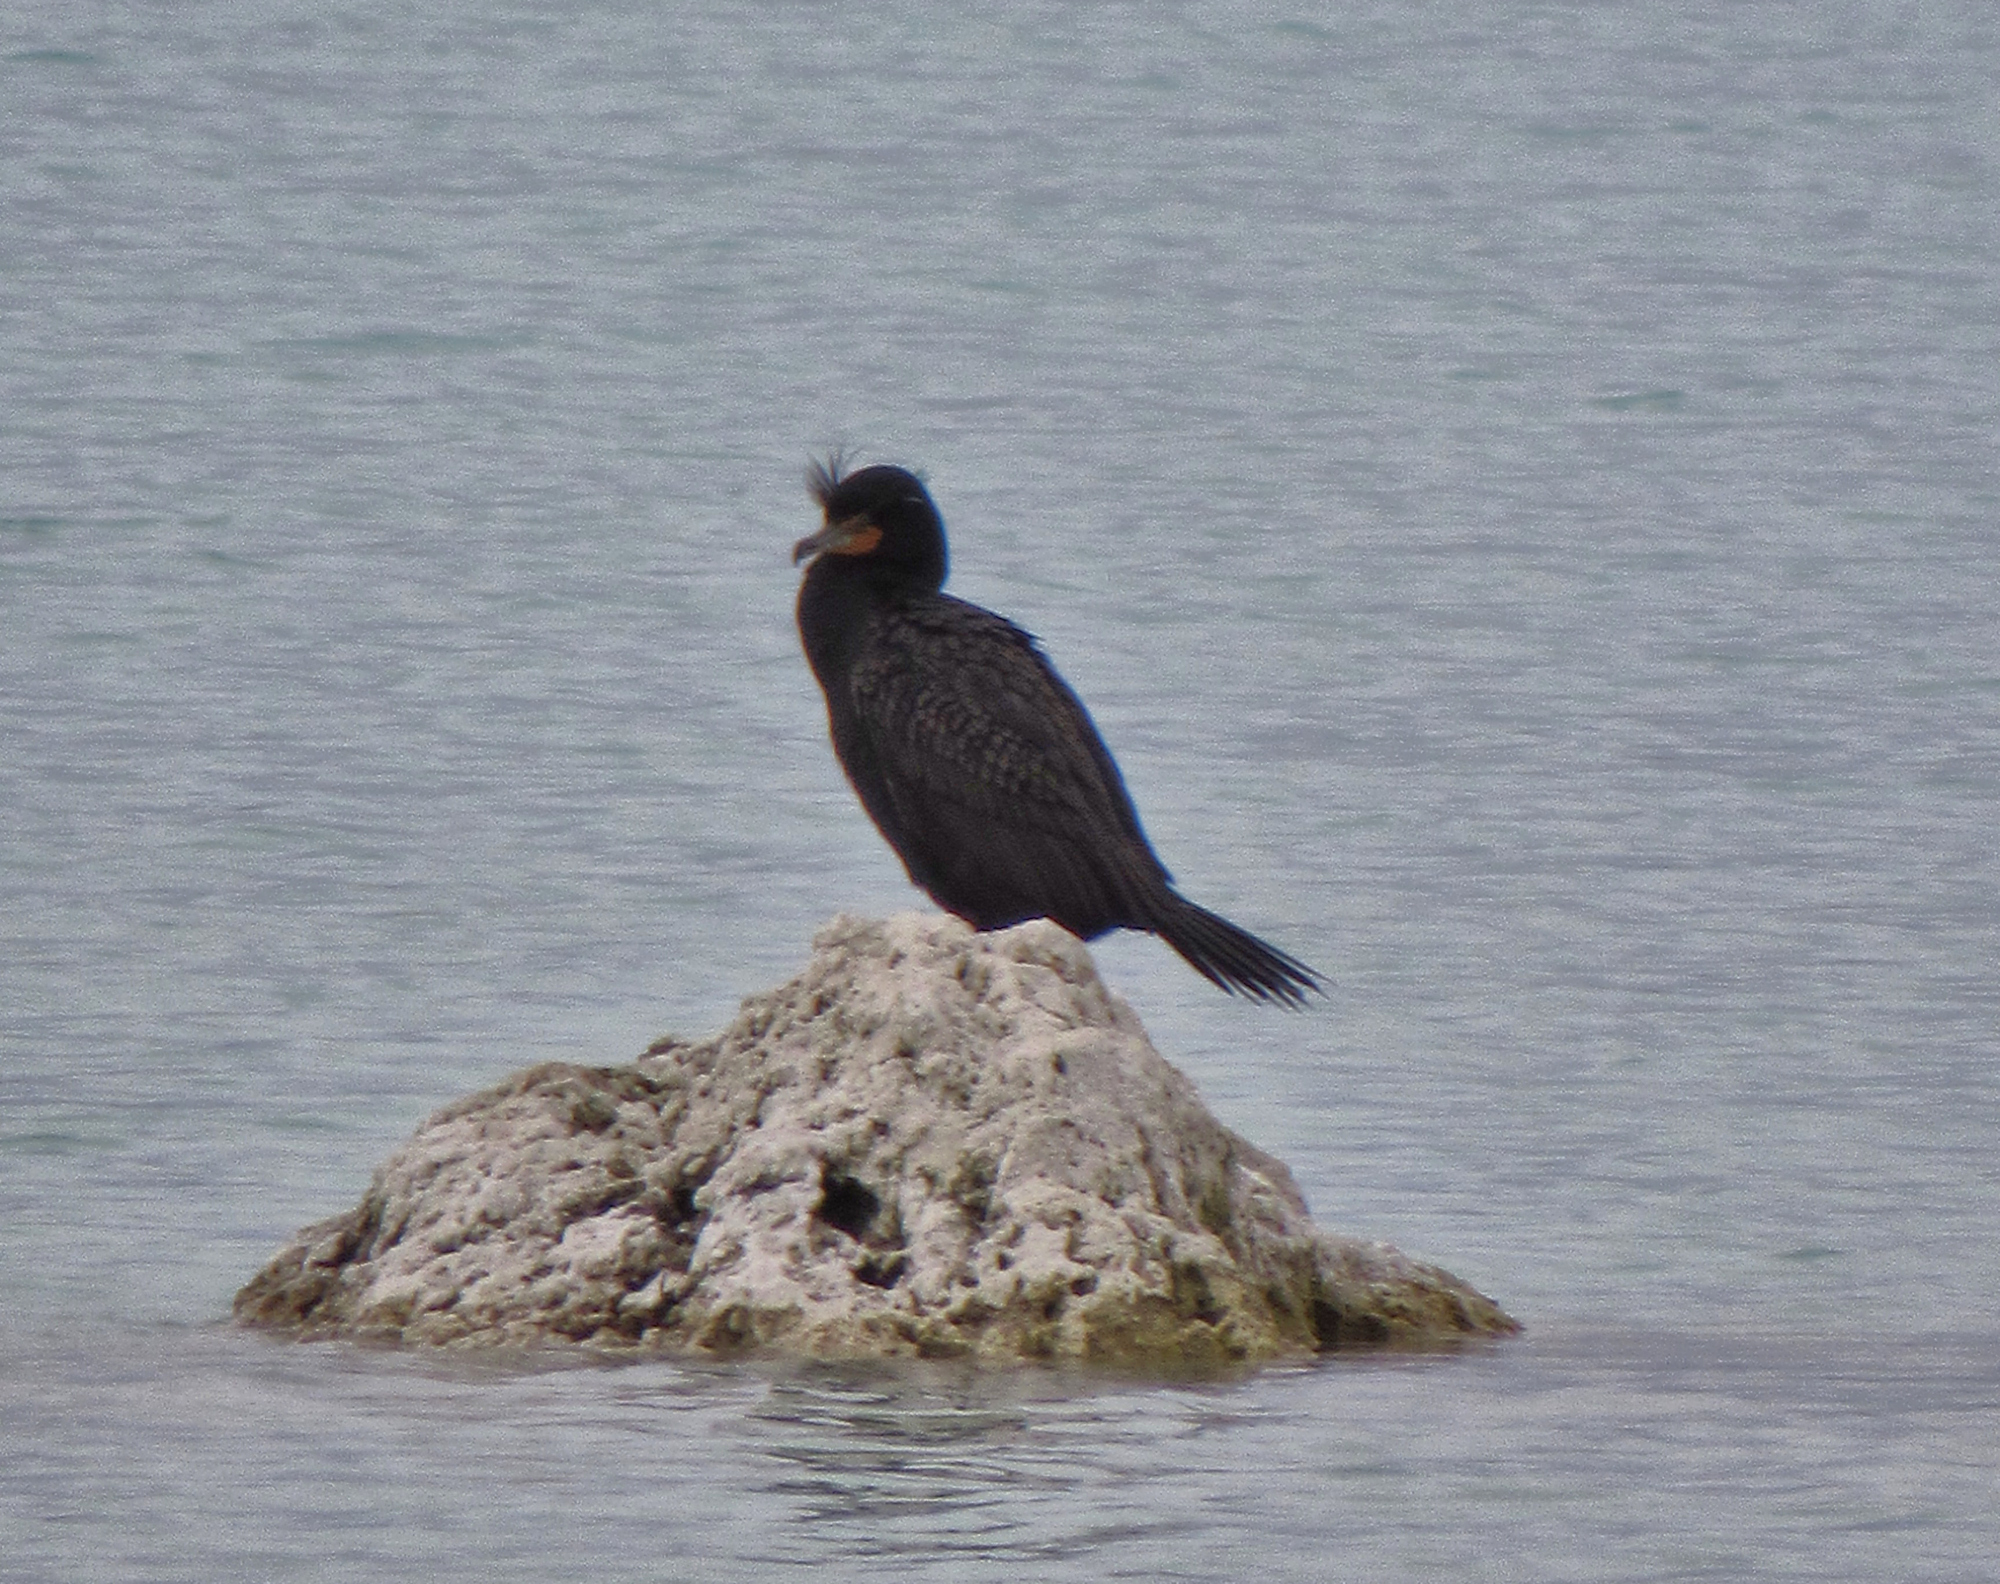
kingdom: Animalia
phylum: Chordata
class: Aves
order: Suliformes
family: Phalacrocoracidae
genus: Phalacrocorax
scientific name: Phalacrocorax auritus
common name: Double-crested cormorant
